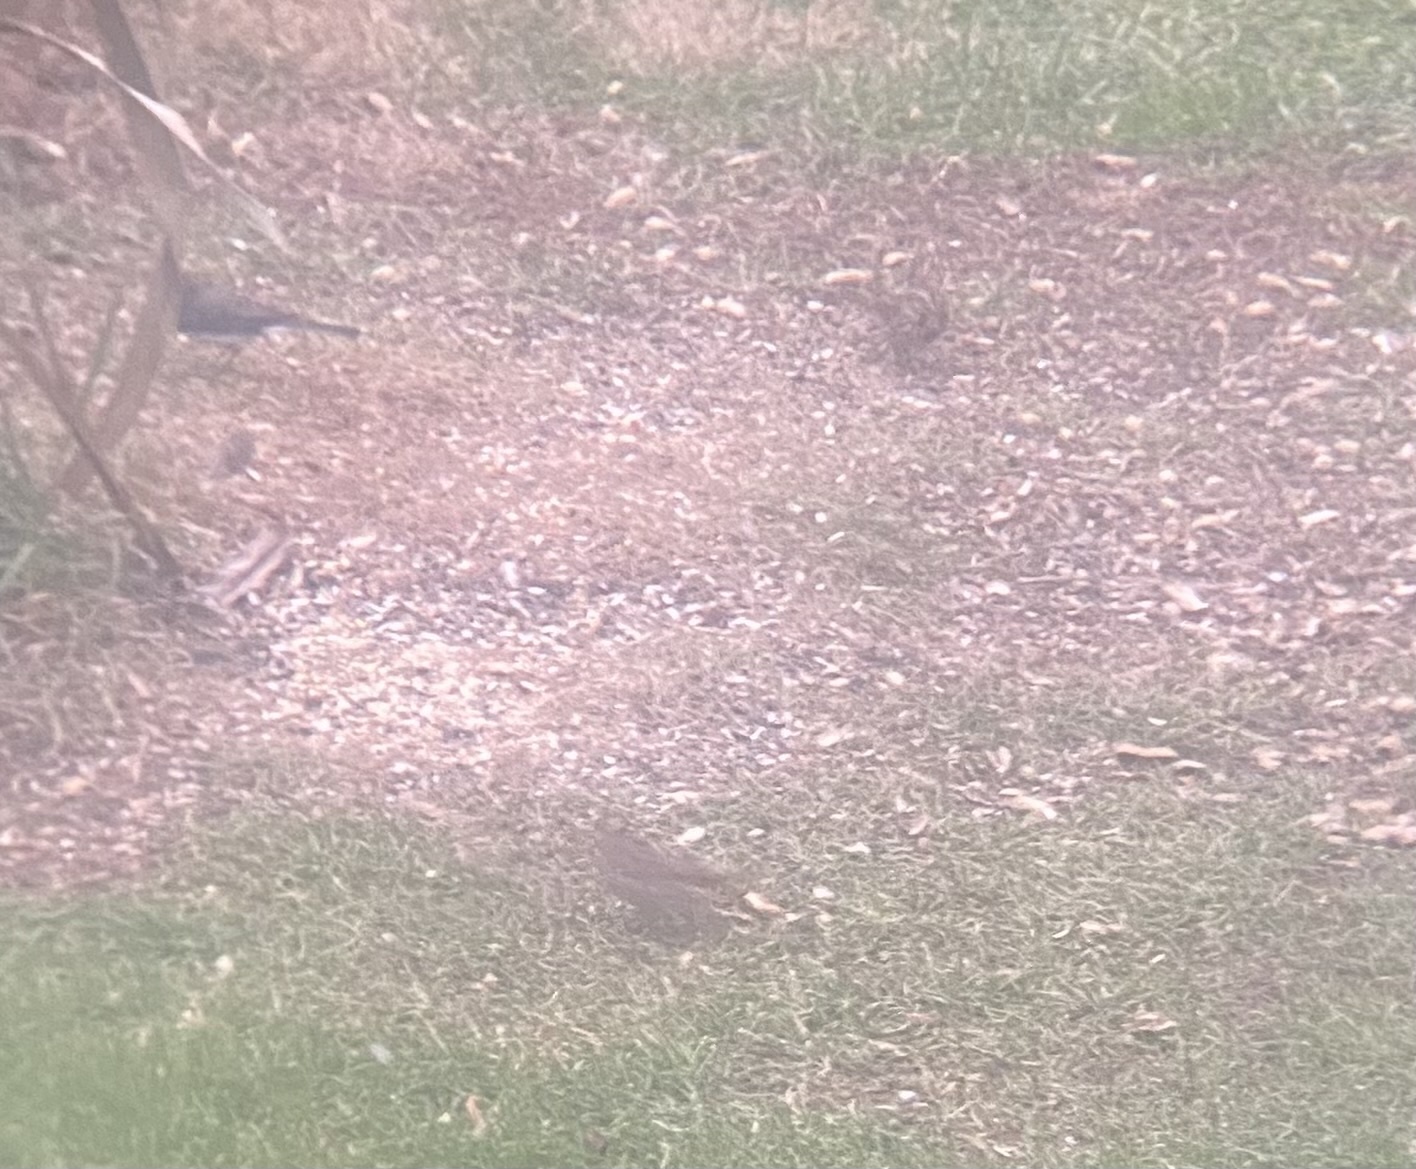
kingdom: Animalia
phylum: Chordata
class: Aves
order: Passeriformes
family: Passerellidae
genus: Melospiza
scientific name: Melospiza melodia
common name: Song sparrow
